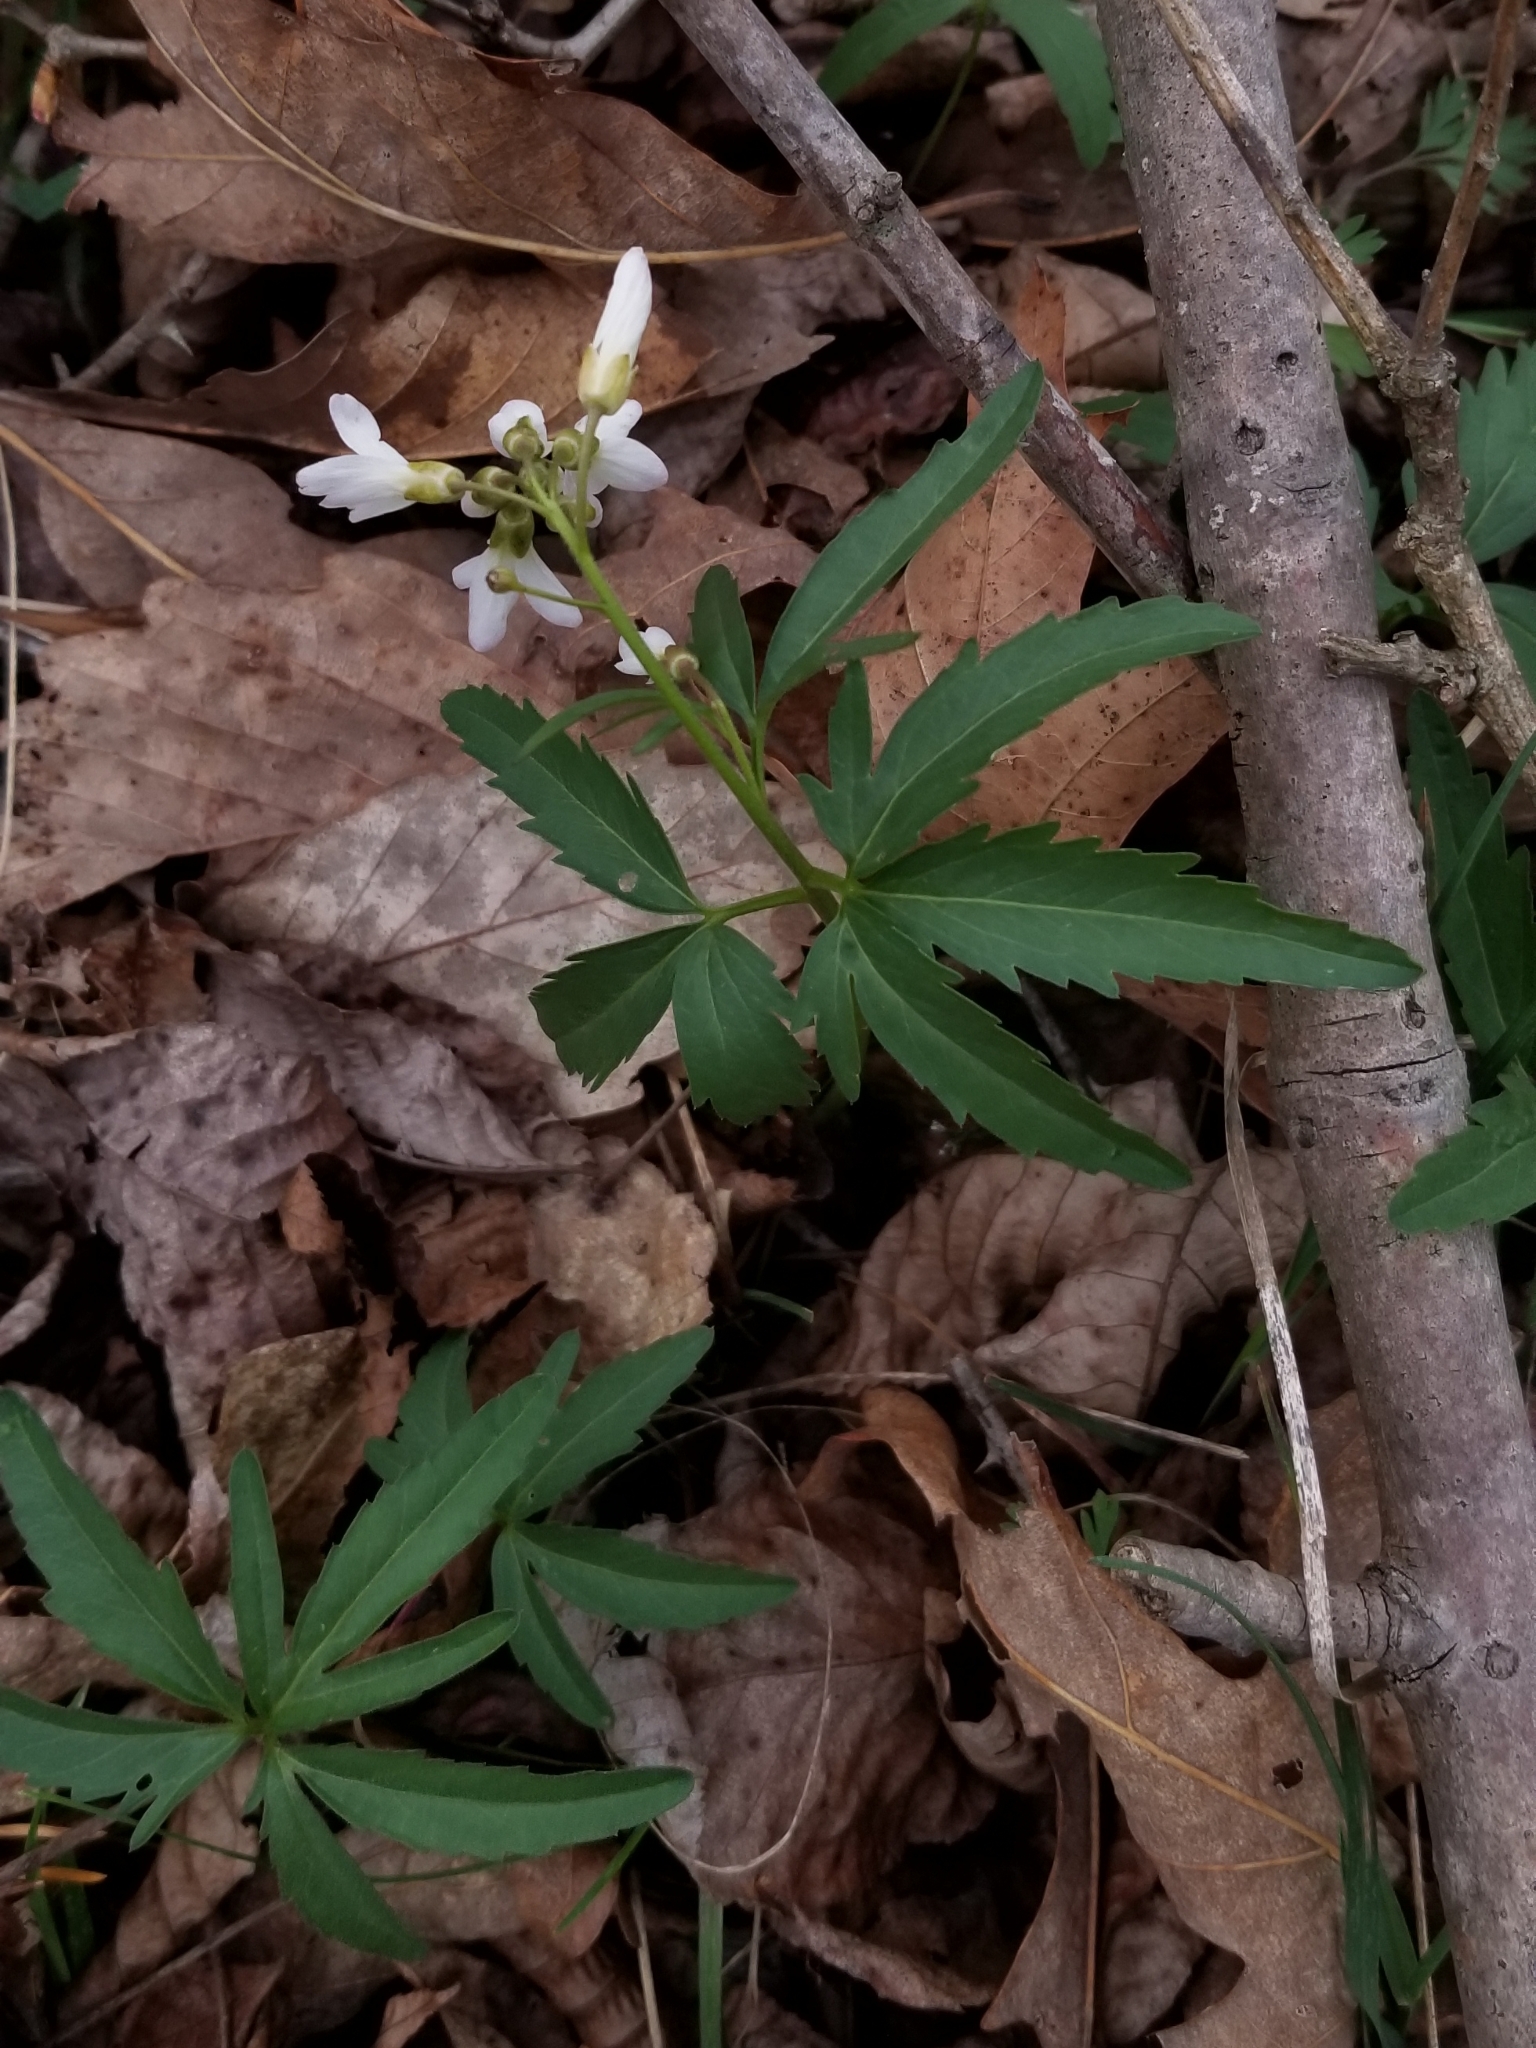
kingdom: Plantae
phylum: Tracheophyta
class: Magnoliopsida
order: Brassicales
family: Brassicaceae
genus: Cardamine
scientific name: Cardamine concatenata
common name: Cut-leaf toothcup
